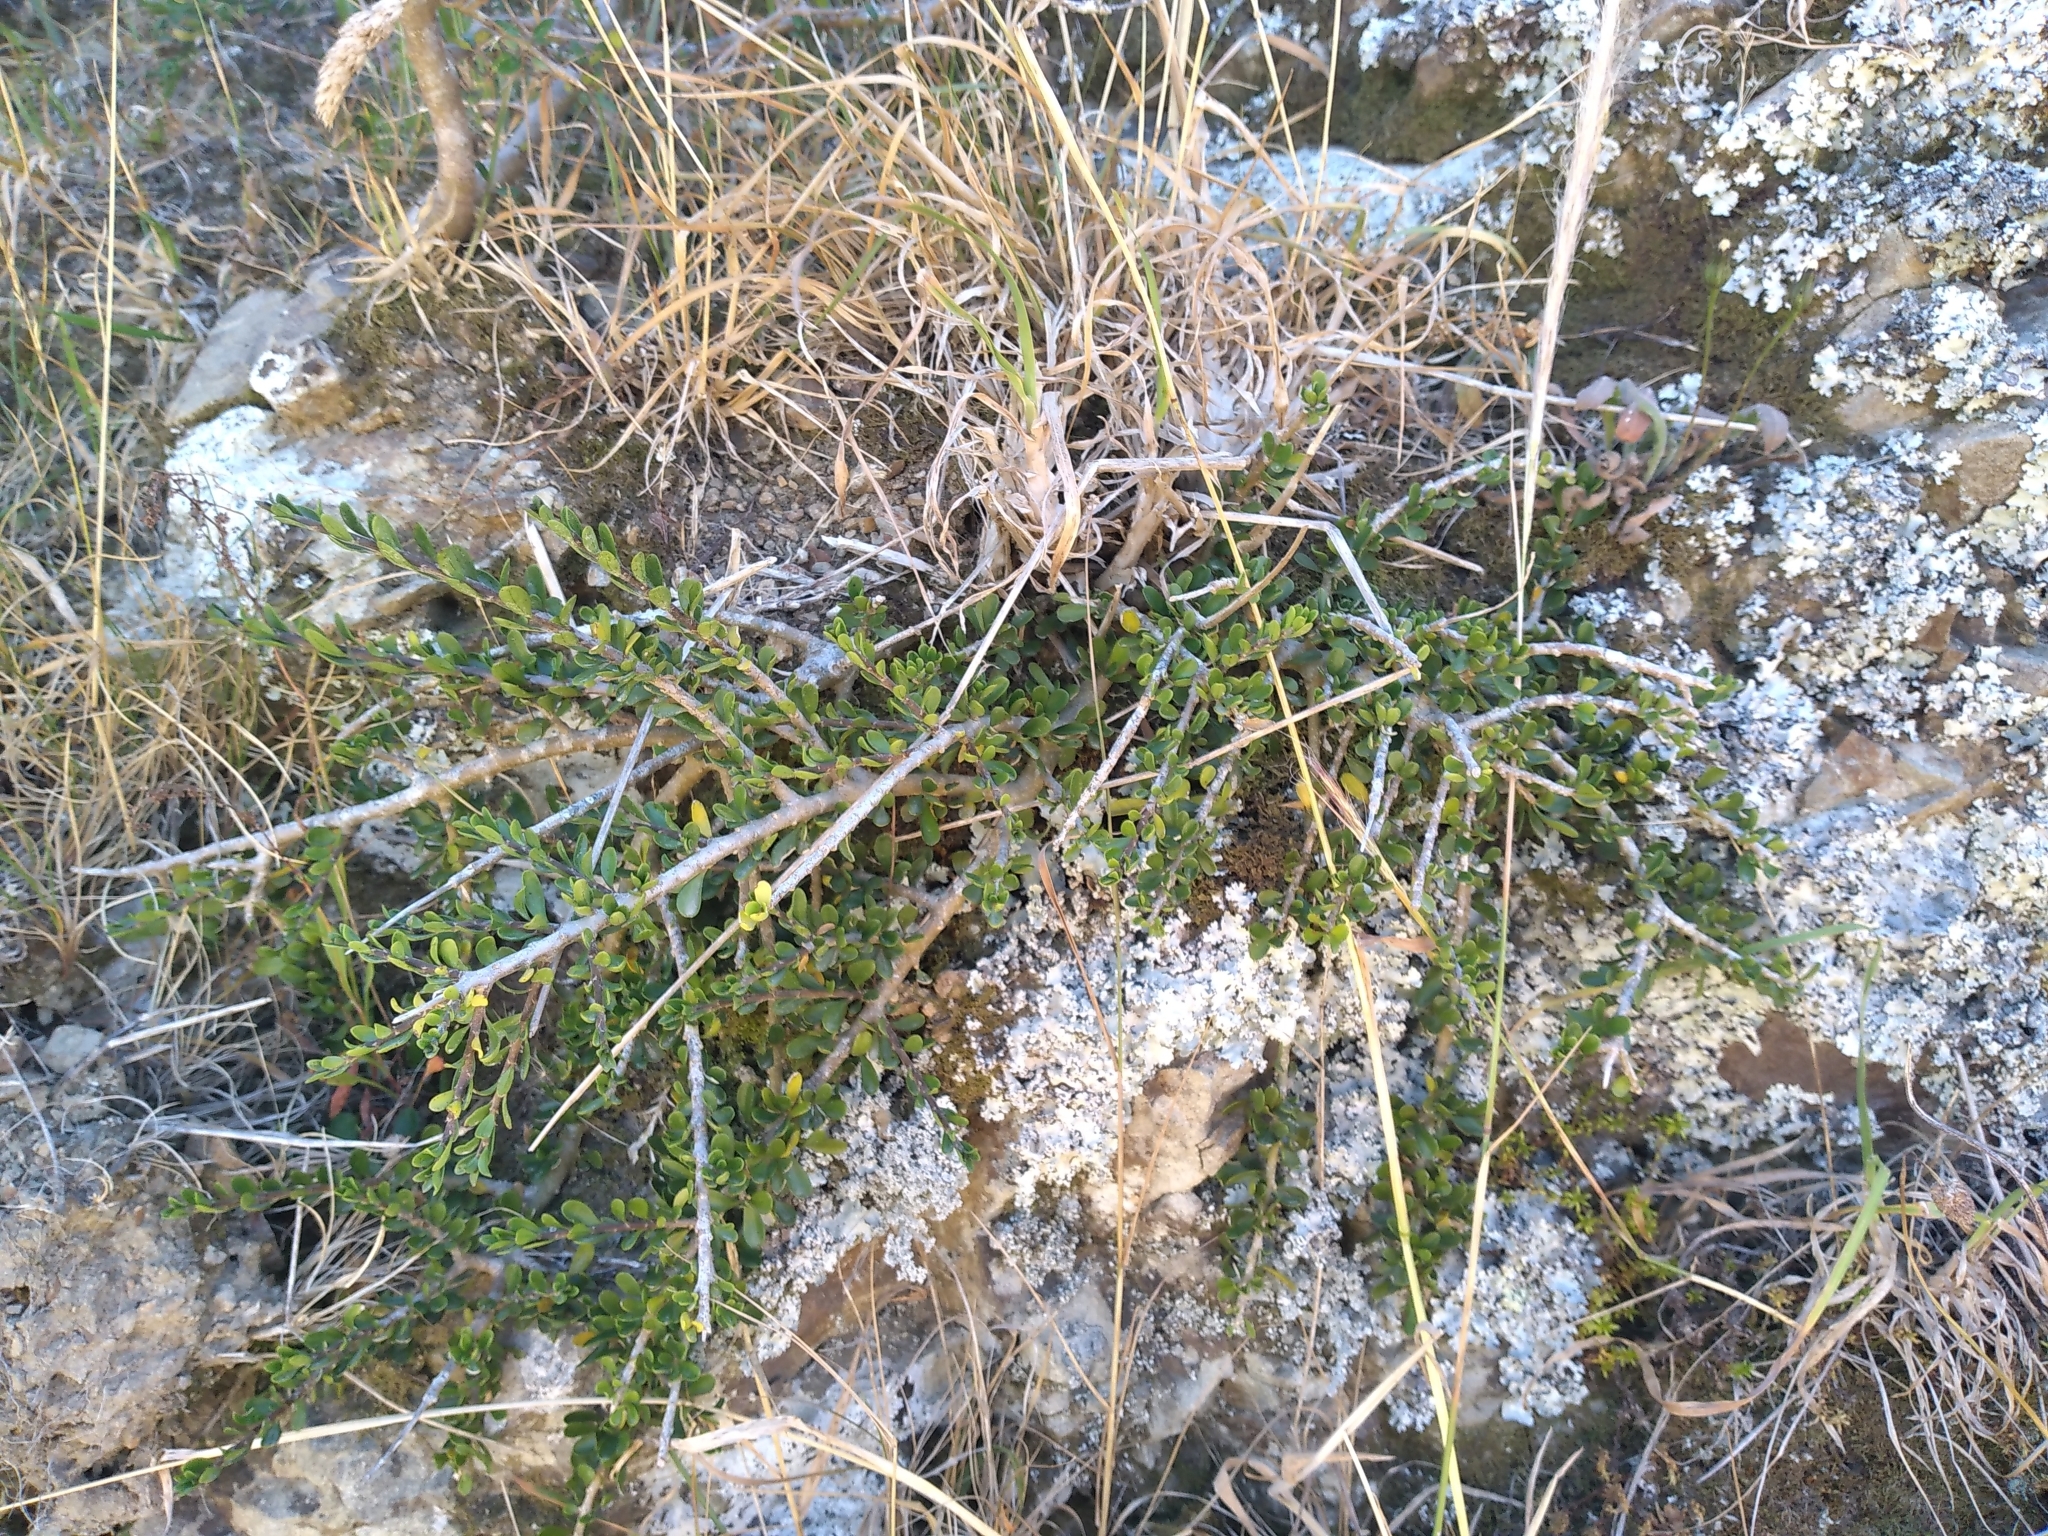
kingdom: Plantae
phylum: Tracheophyta
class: Magnoliopsida
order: Malpighiales
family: Violaceae
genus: Melicytus
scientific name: Melicytus crassifolius
